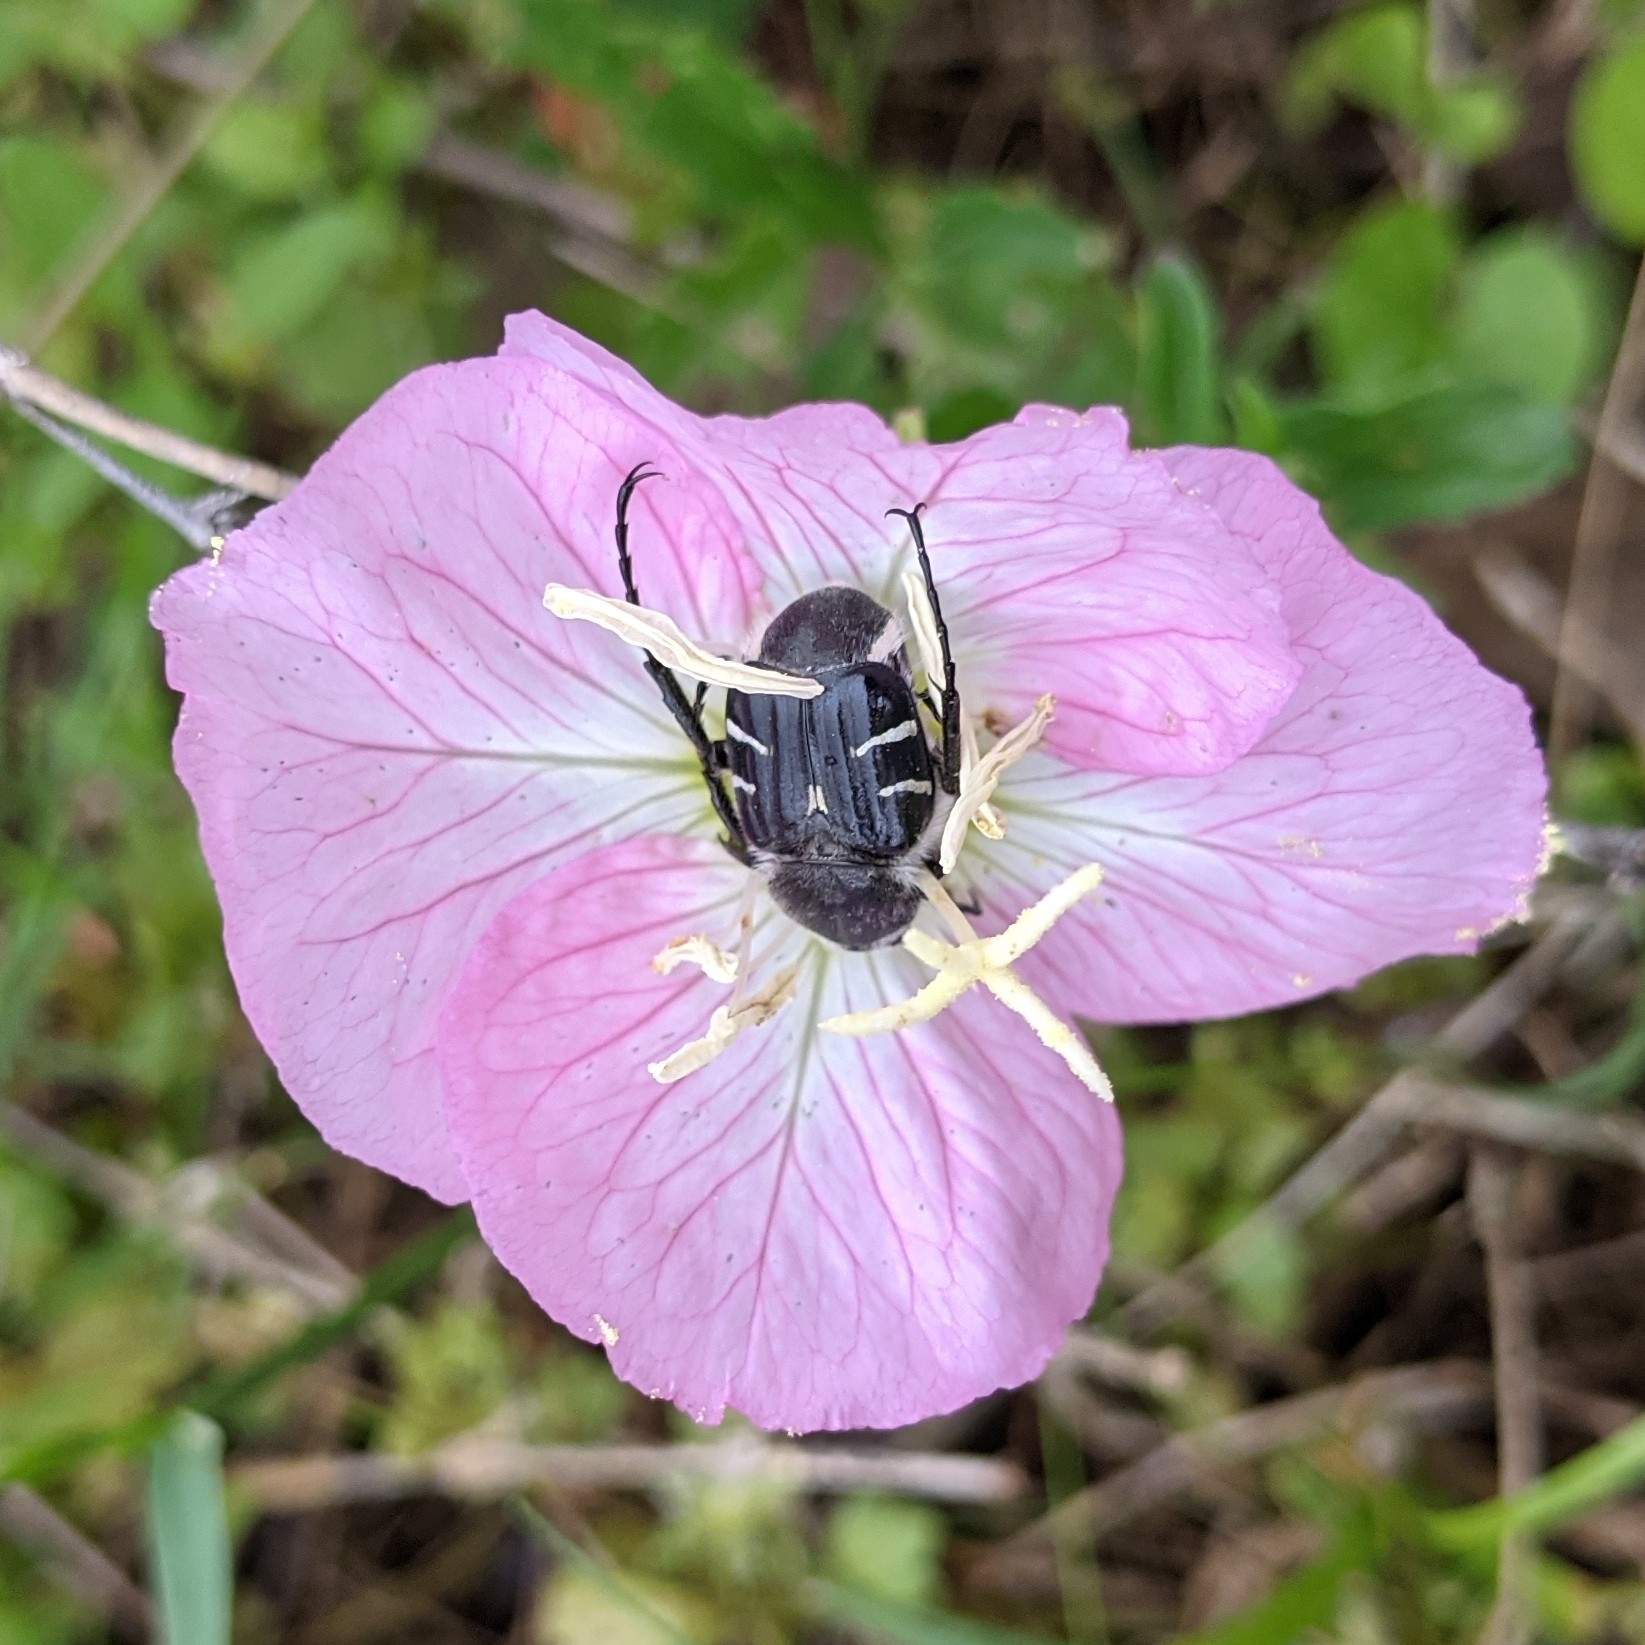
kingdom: Animalia
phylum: Arthropoda
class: Insecta
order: Coleoptera
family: Scarabaeidae
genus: Trichiotinus
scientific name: Trichiotinus texanus
